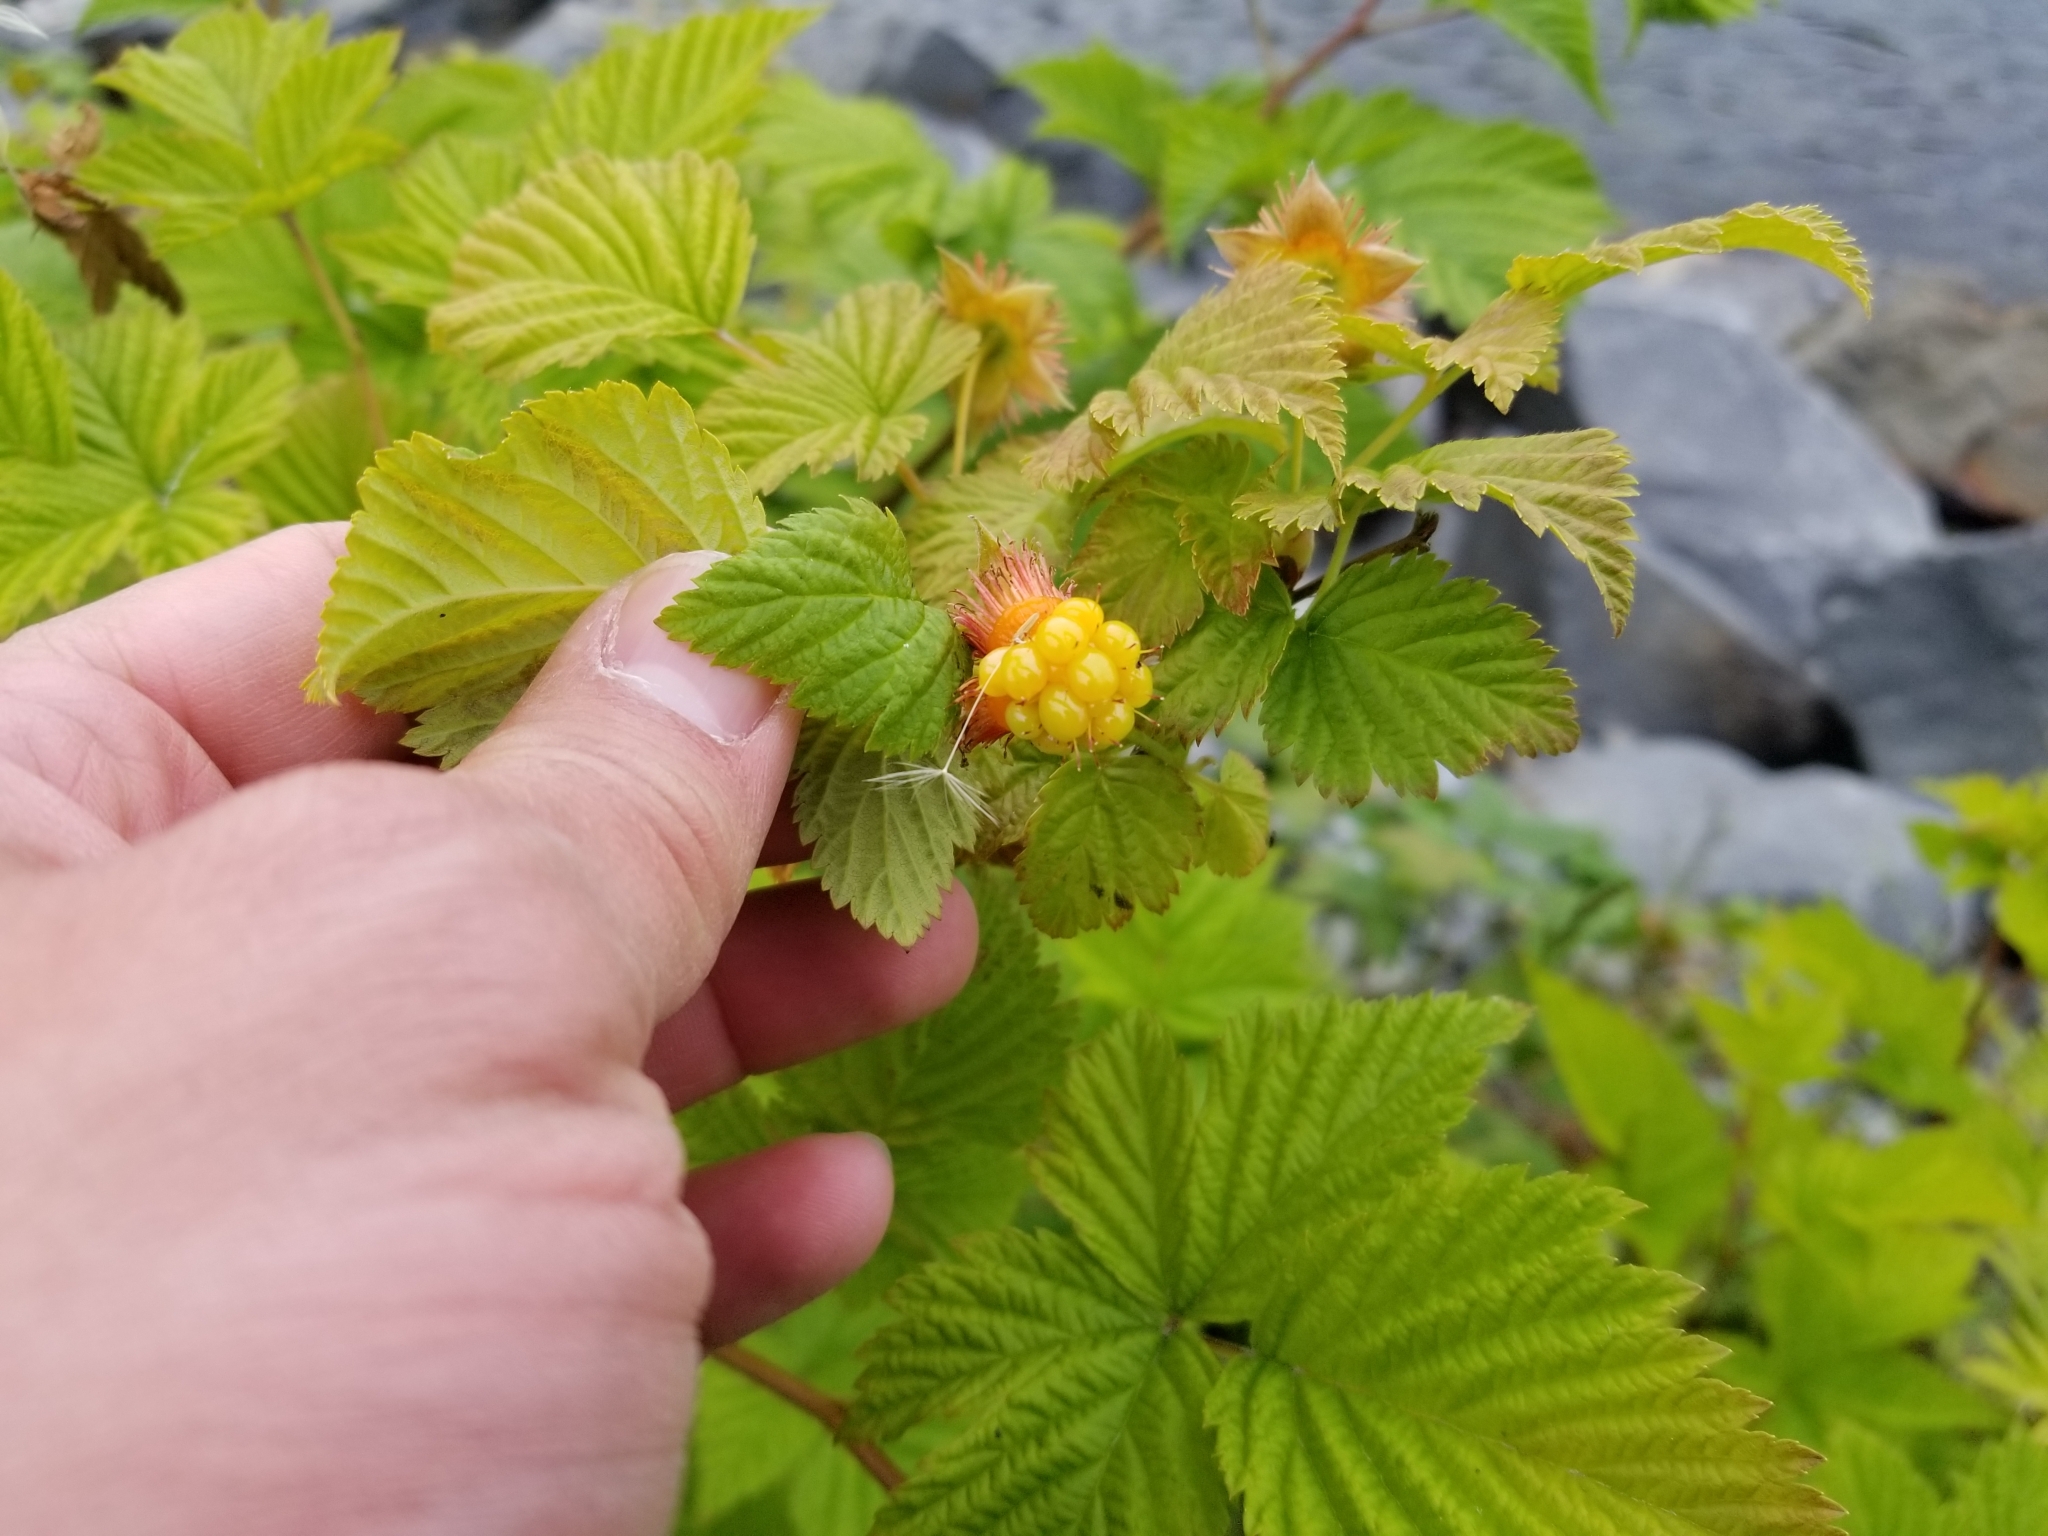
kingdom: Plantae
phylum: Tracheophyta
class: Magnoliopsida
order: Rosales
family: Rosaceae
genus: Rubus
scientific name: Rubus spectabilis
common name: Salmonberry
